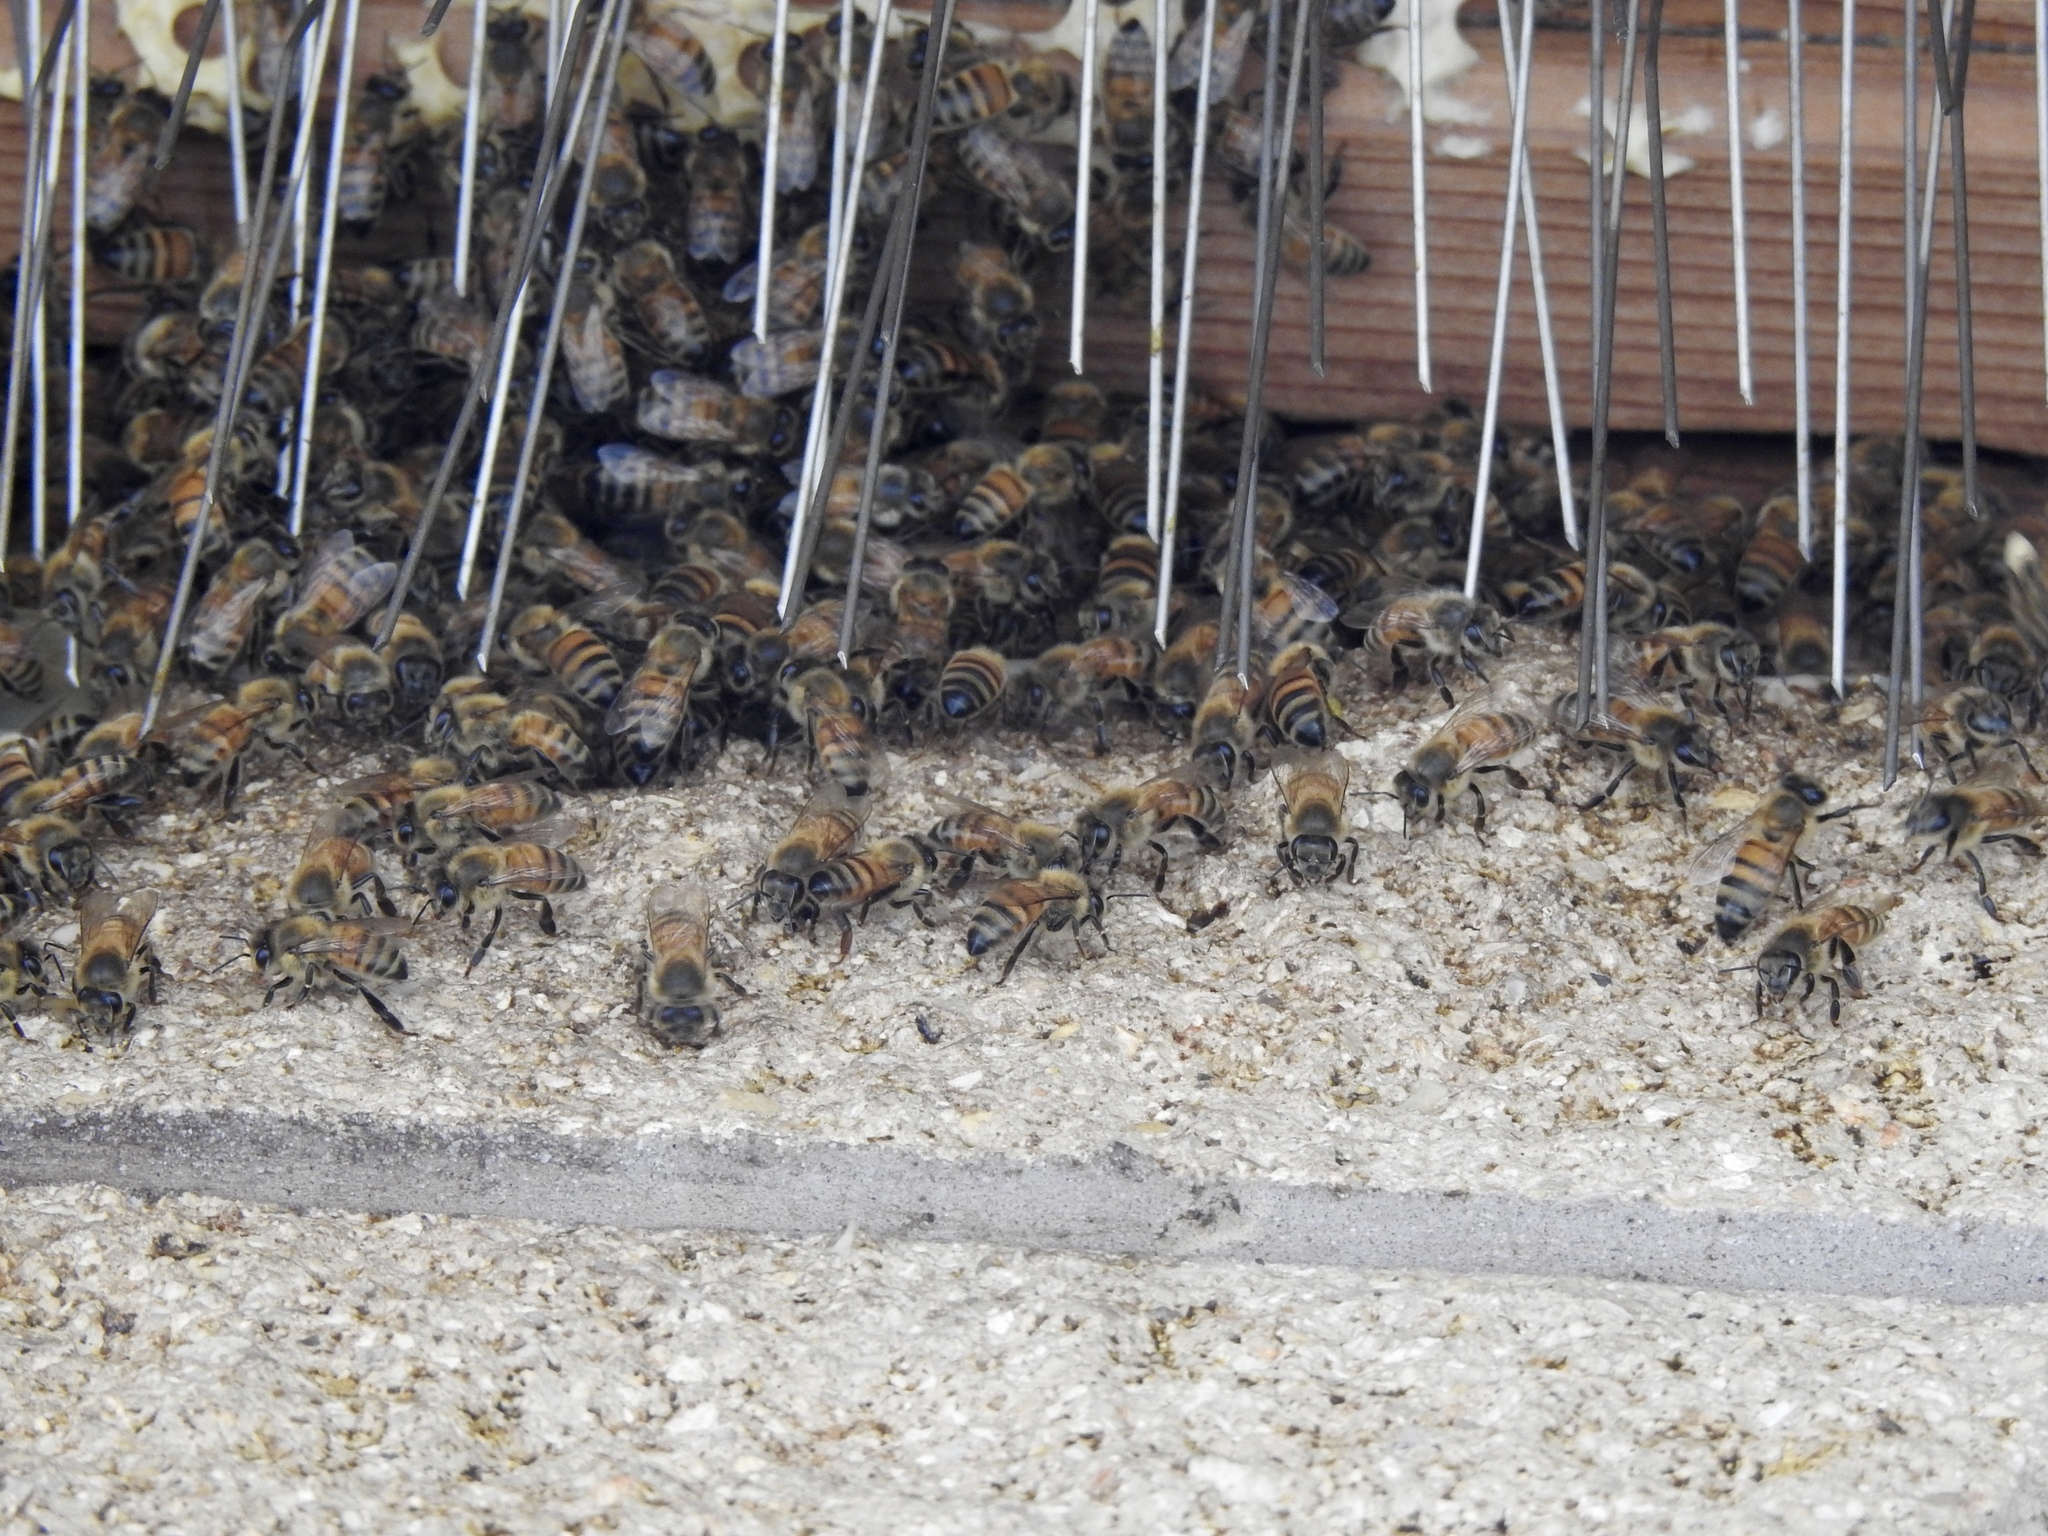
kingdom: Animalia
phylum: Arthropoda
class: Insecta
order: Hymenoptera
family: Apidae
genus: Apis
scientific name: Apis mellifera
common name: Honey bee
